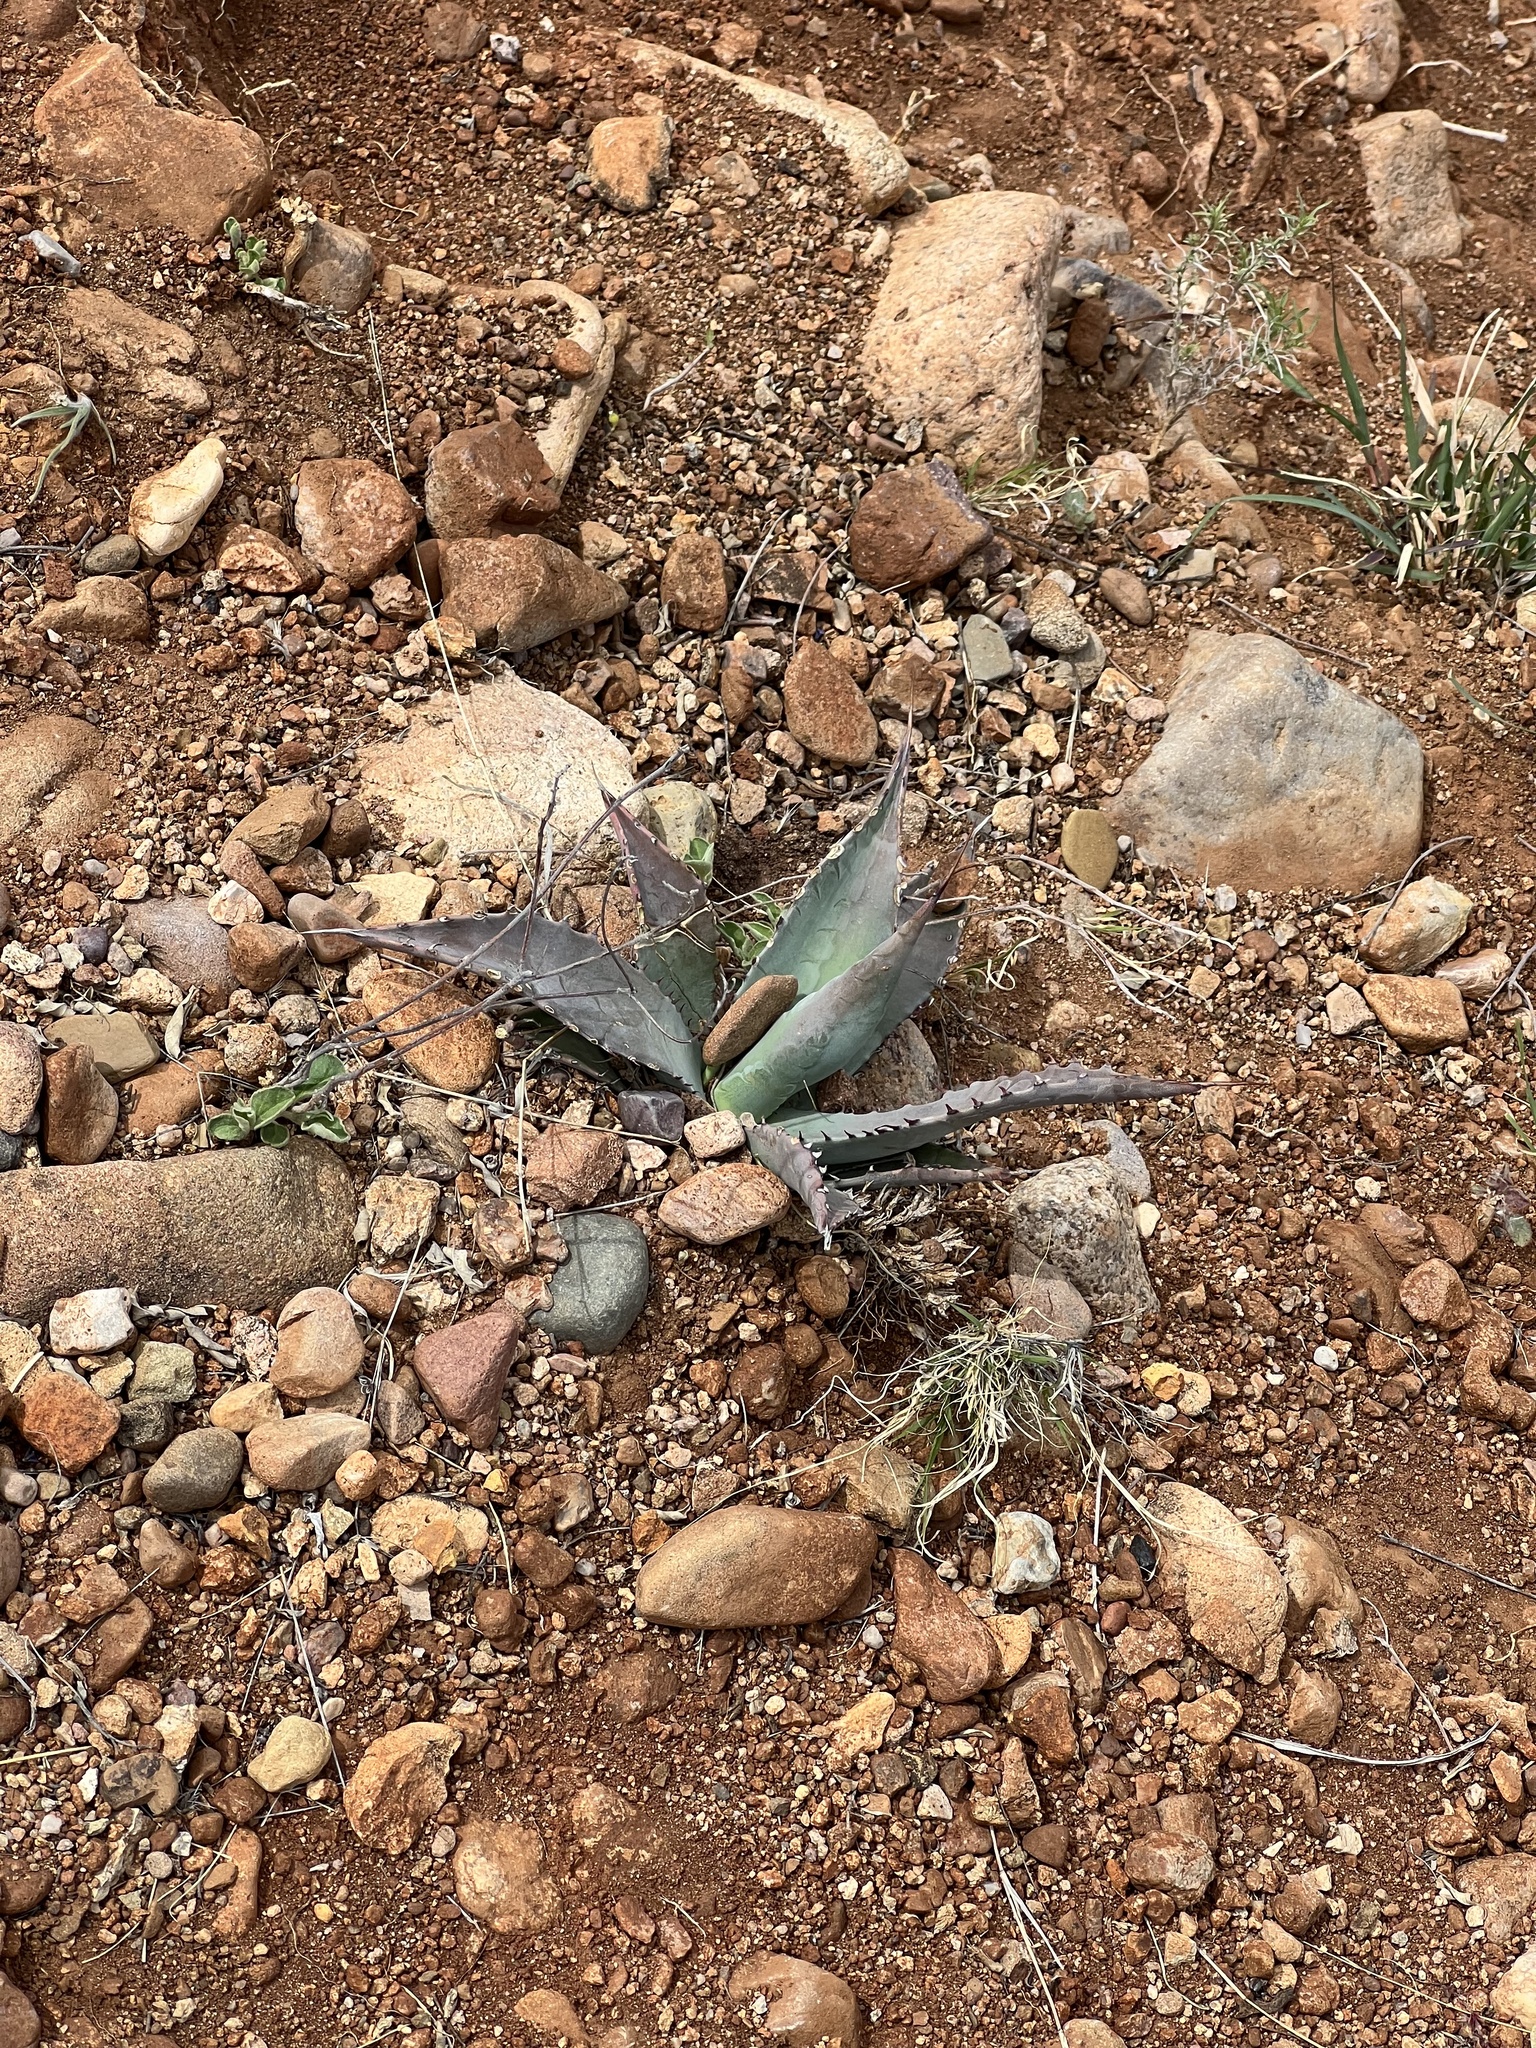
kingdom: Plantae
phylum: Tracheophyta
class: Liliopsida
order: Asparagales
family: Asparagaceae
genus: Agave
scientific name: Agave palmeri
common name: Palmer agave
